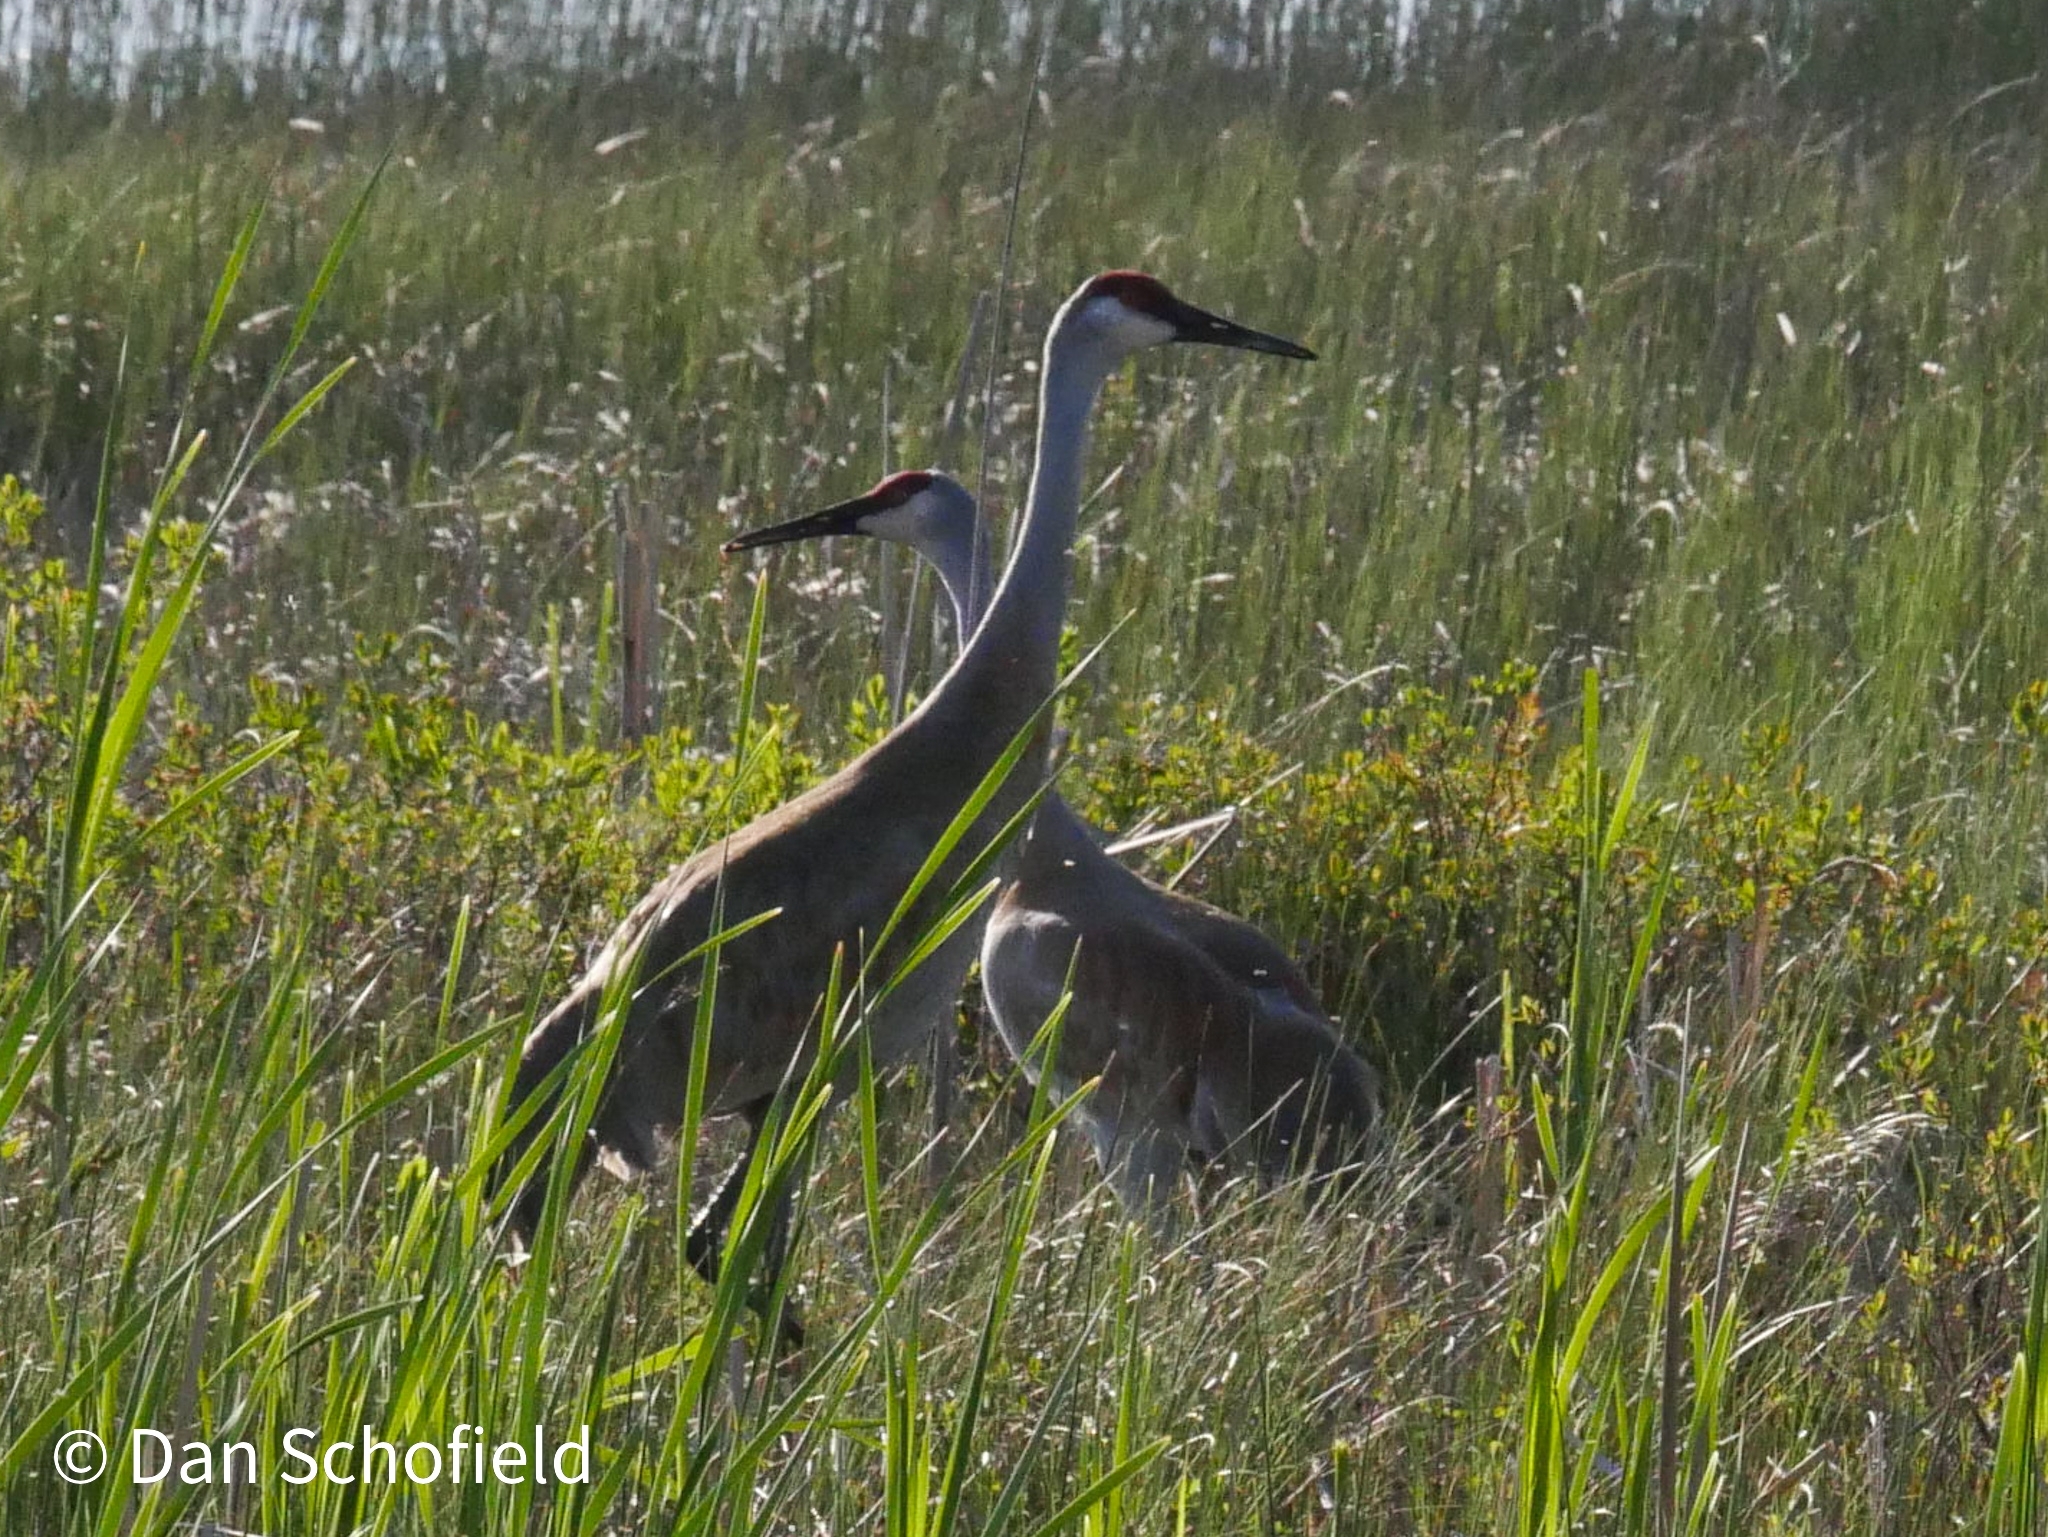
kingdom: Animalia
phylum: Chordata
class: Aves
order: Gruiformes
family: Gruidae
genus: Grus
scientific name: Grus canadensis
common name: Sandhill crane
